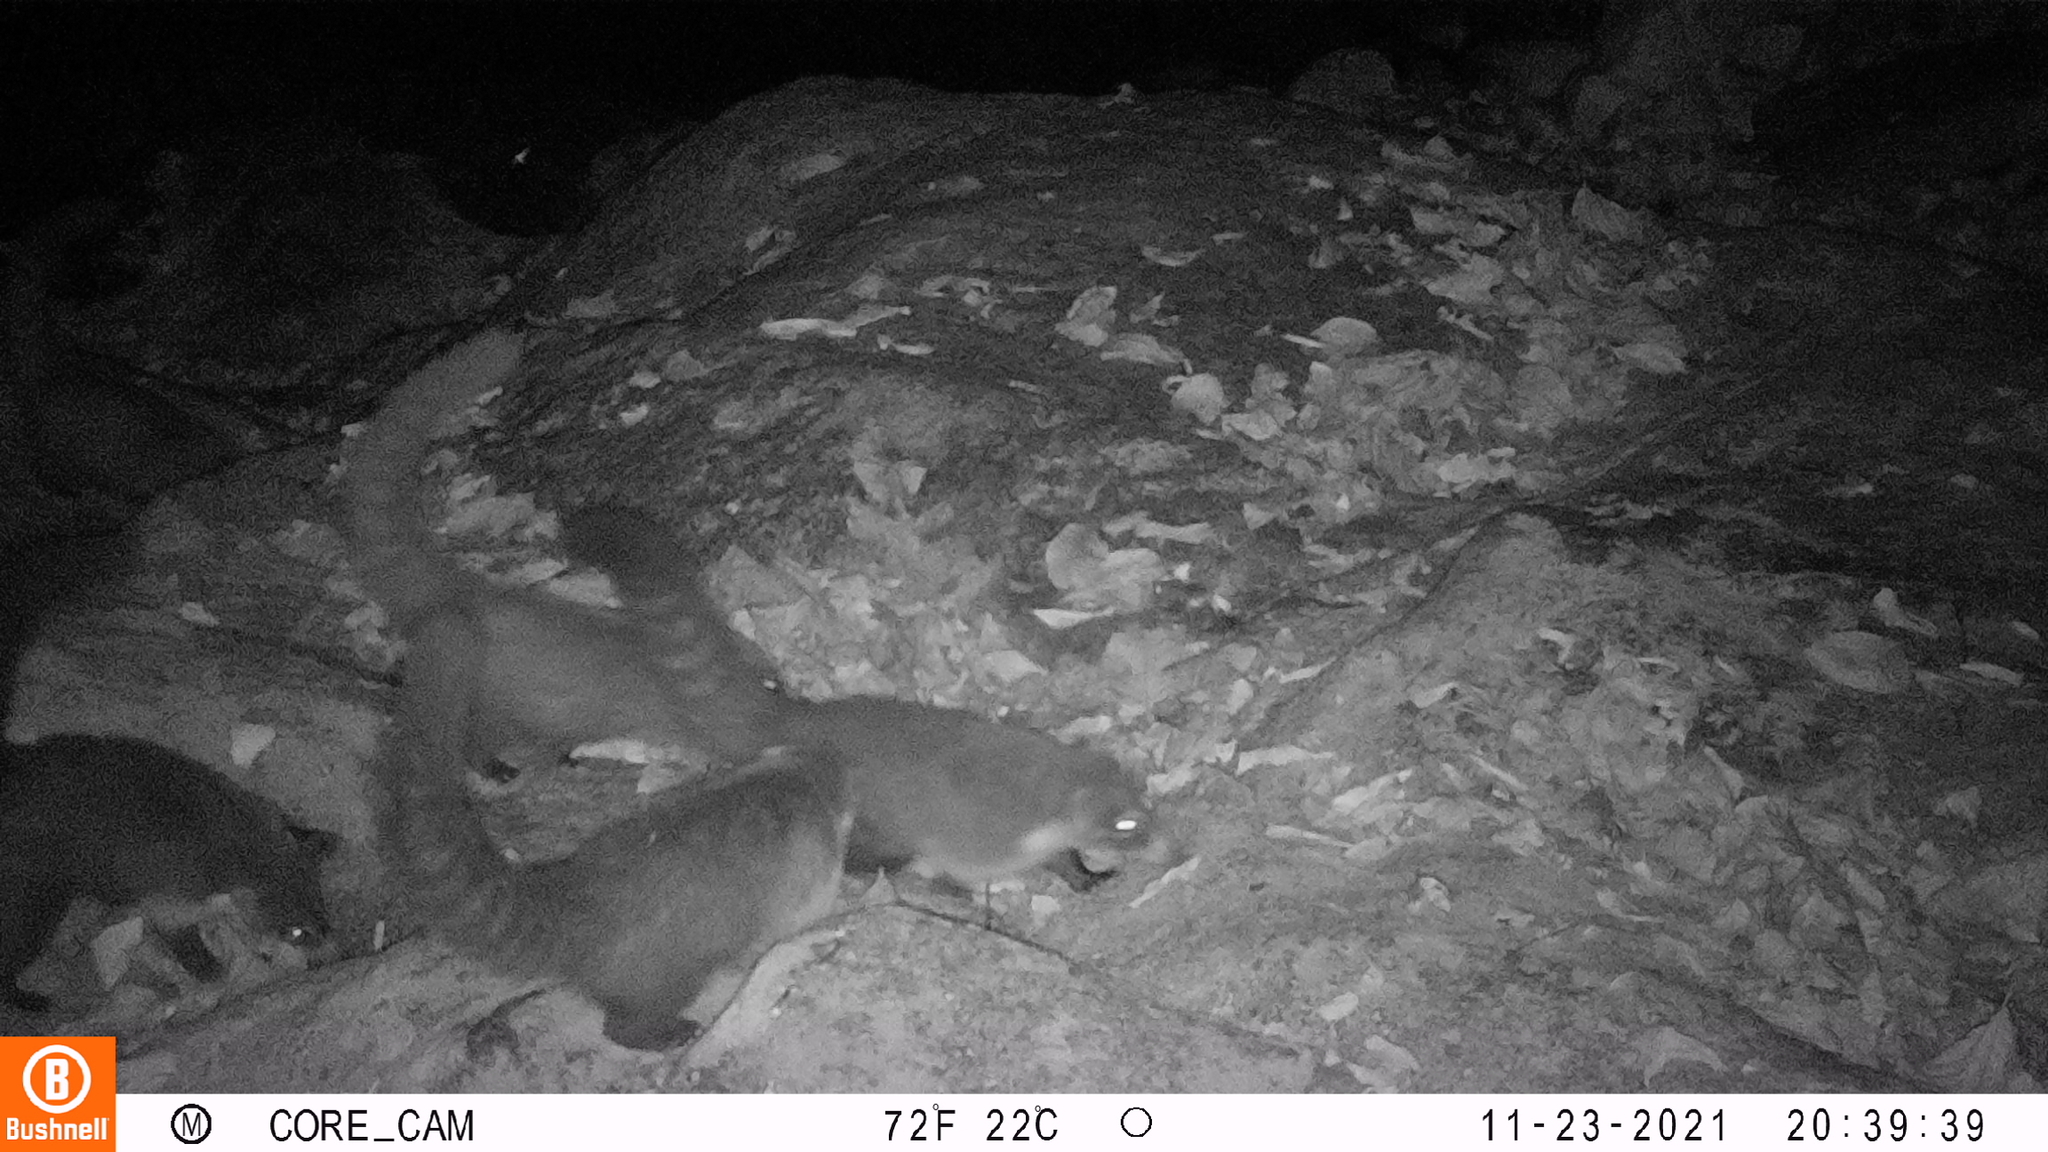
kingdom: Animalia
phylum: Chordata
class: Mammalia
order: Carnivora
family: Procyonidae
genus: Nasua
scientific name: Nasua narica
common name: White-nosed coati
